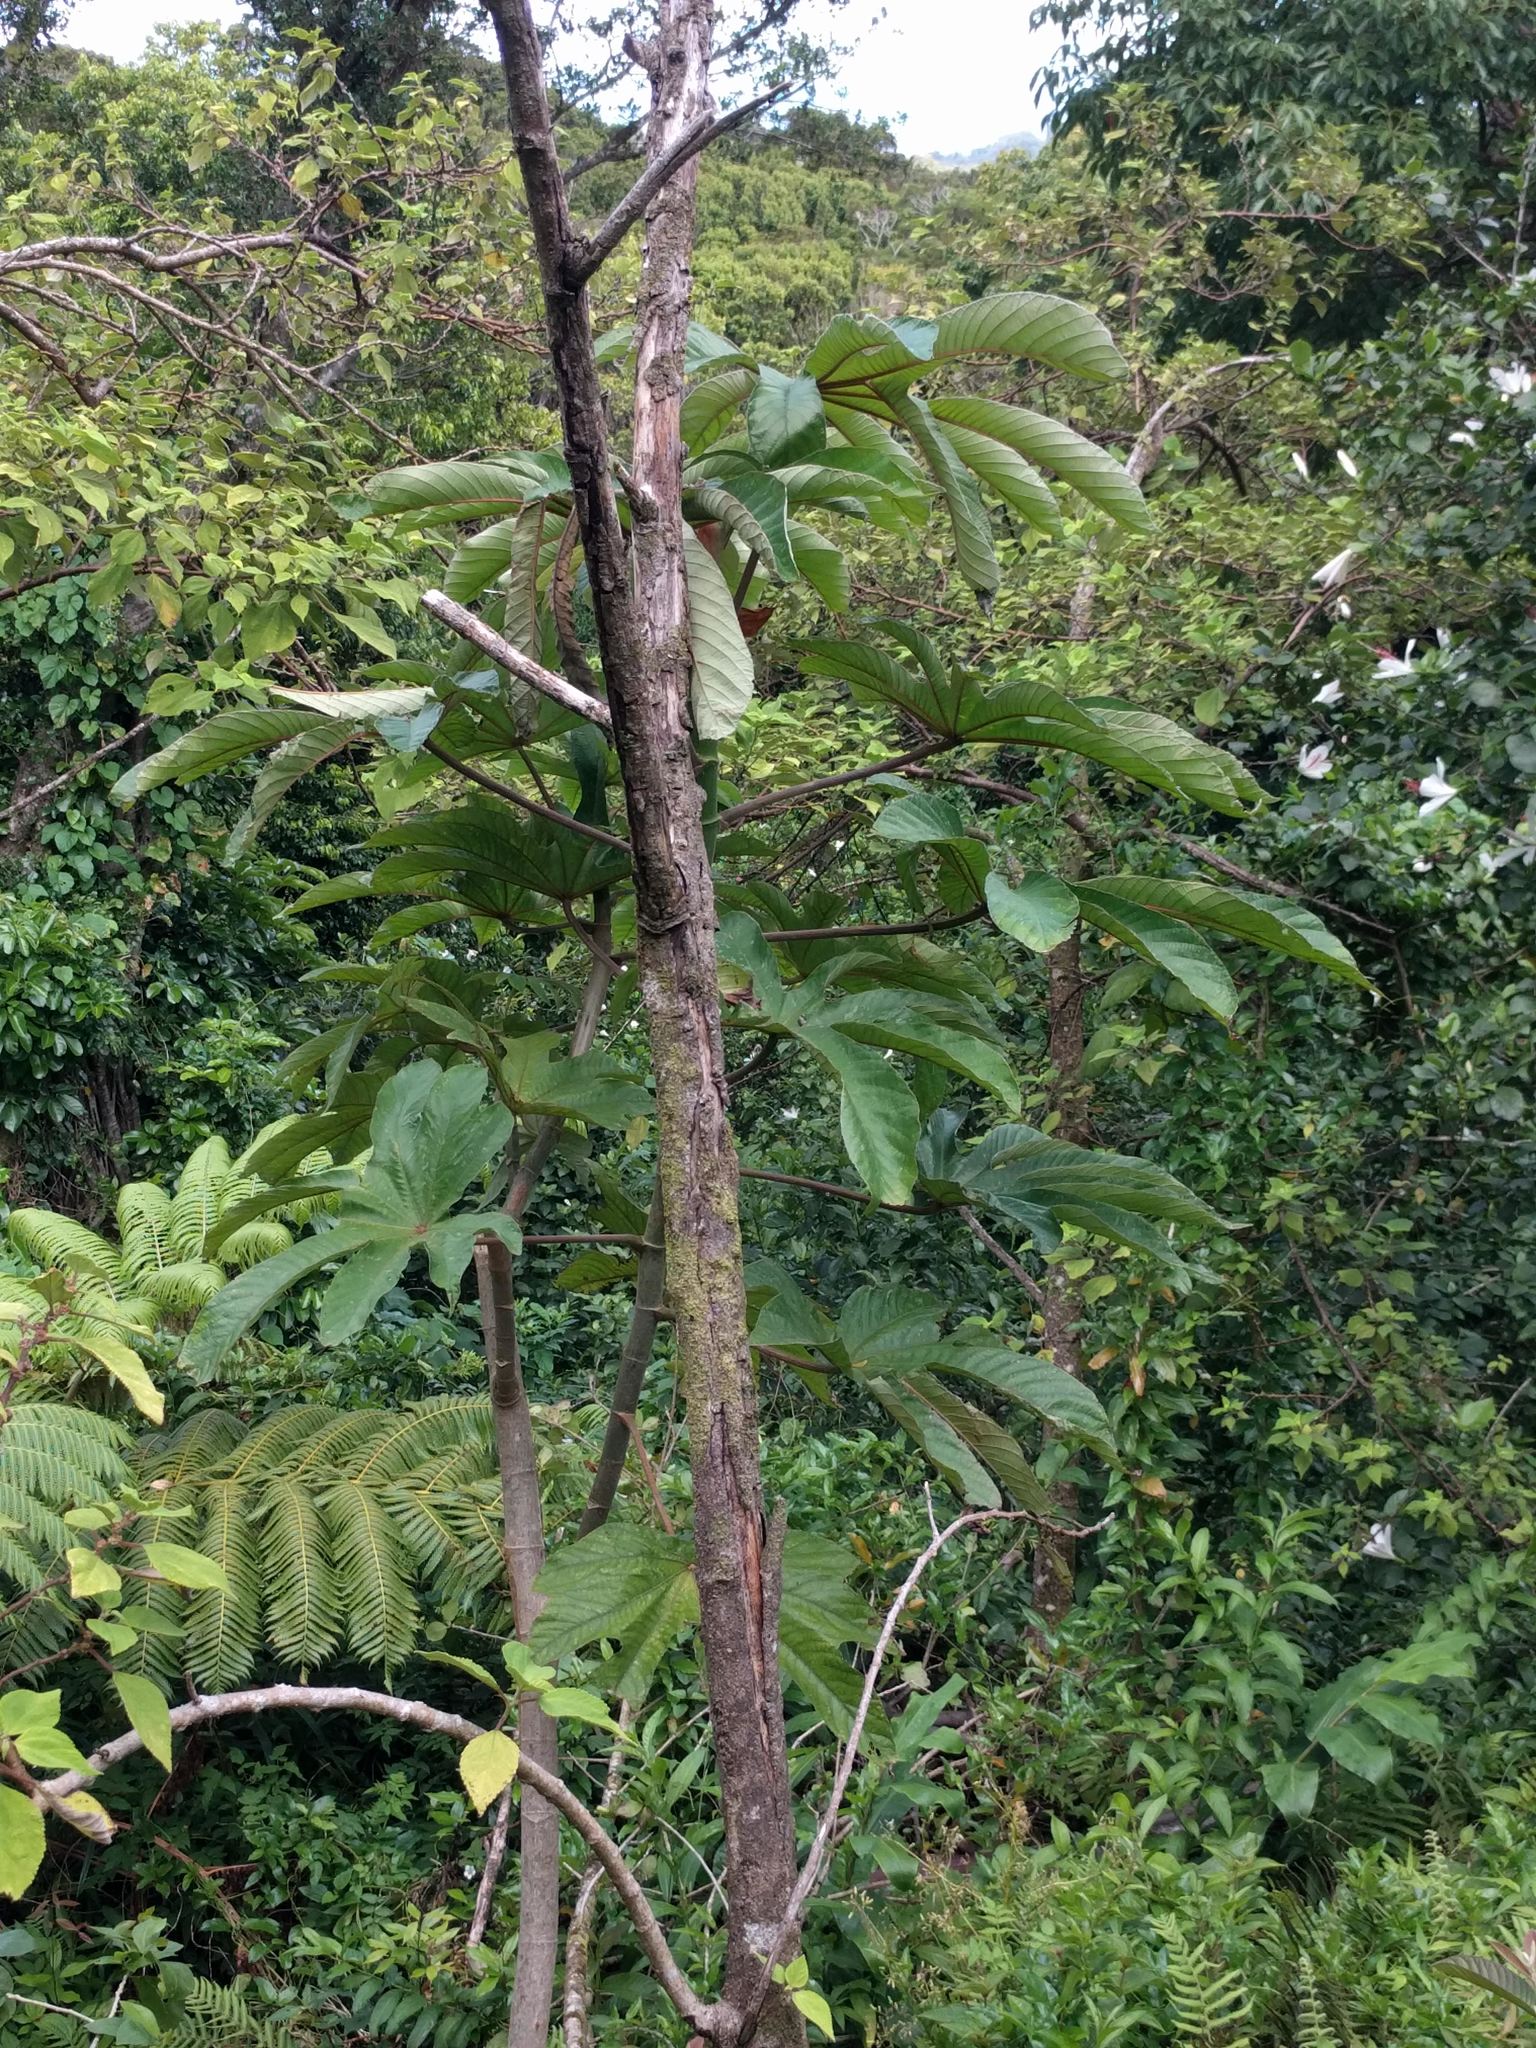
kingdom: Plantae
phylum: Tracheophyta
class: Magnoliopsida
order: Rosales
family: Urticaceae
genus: Cecropia
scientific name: Cecropia obtusifolia
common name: Trumpet tree
